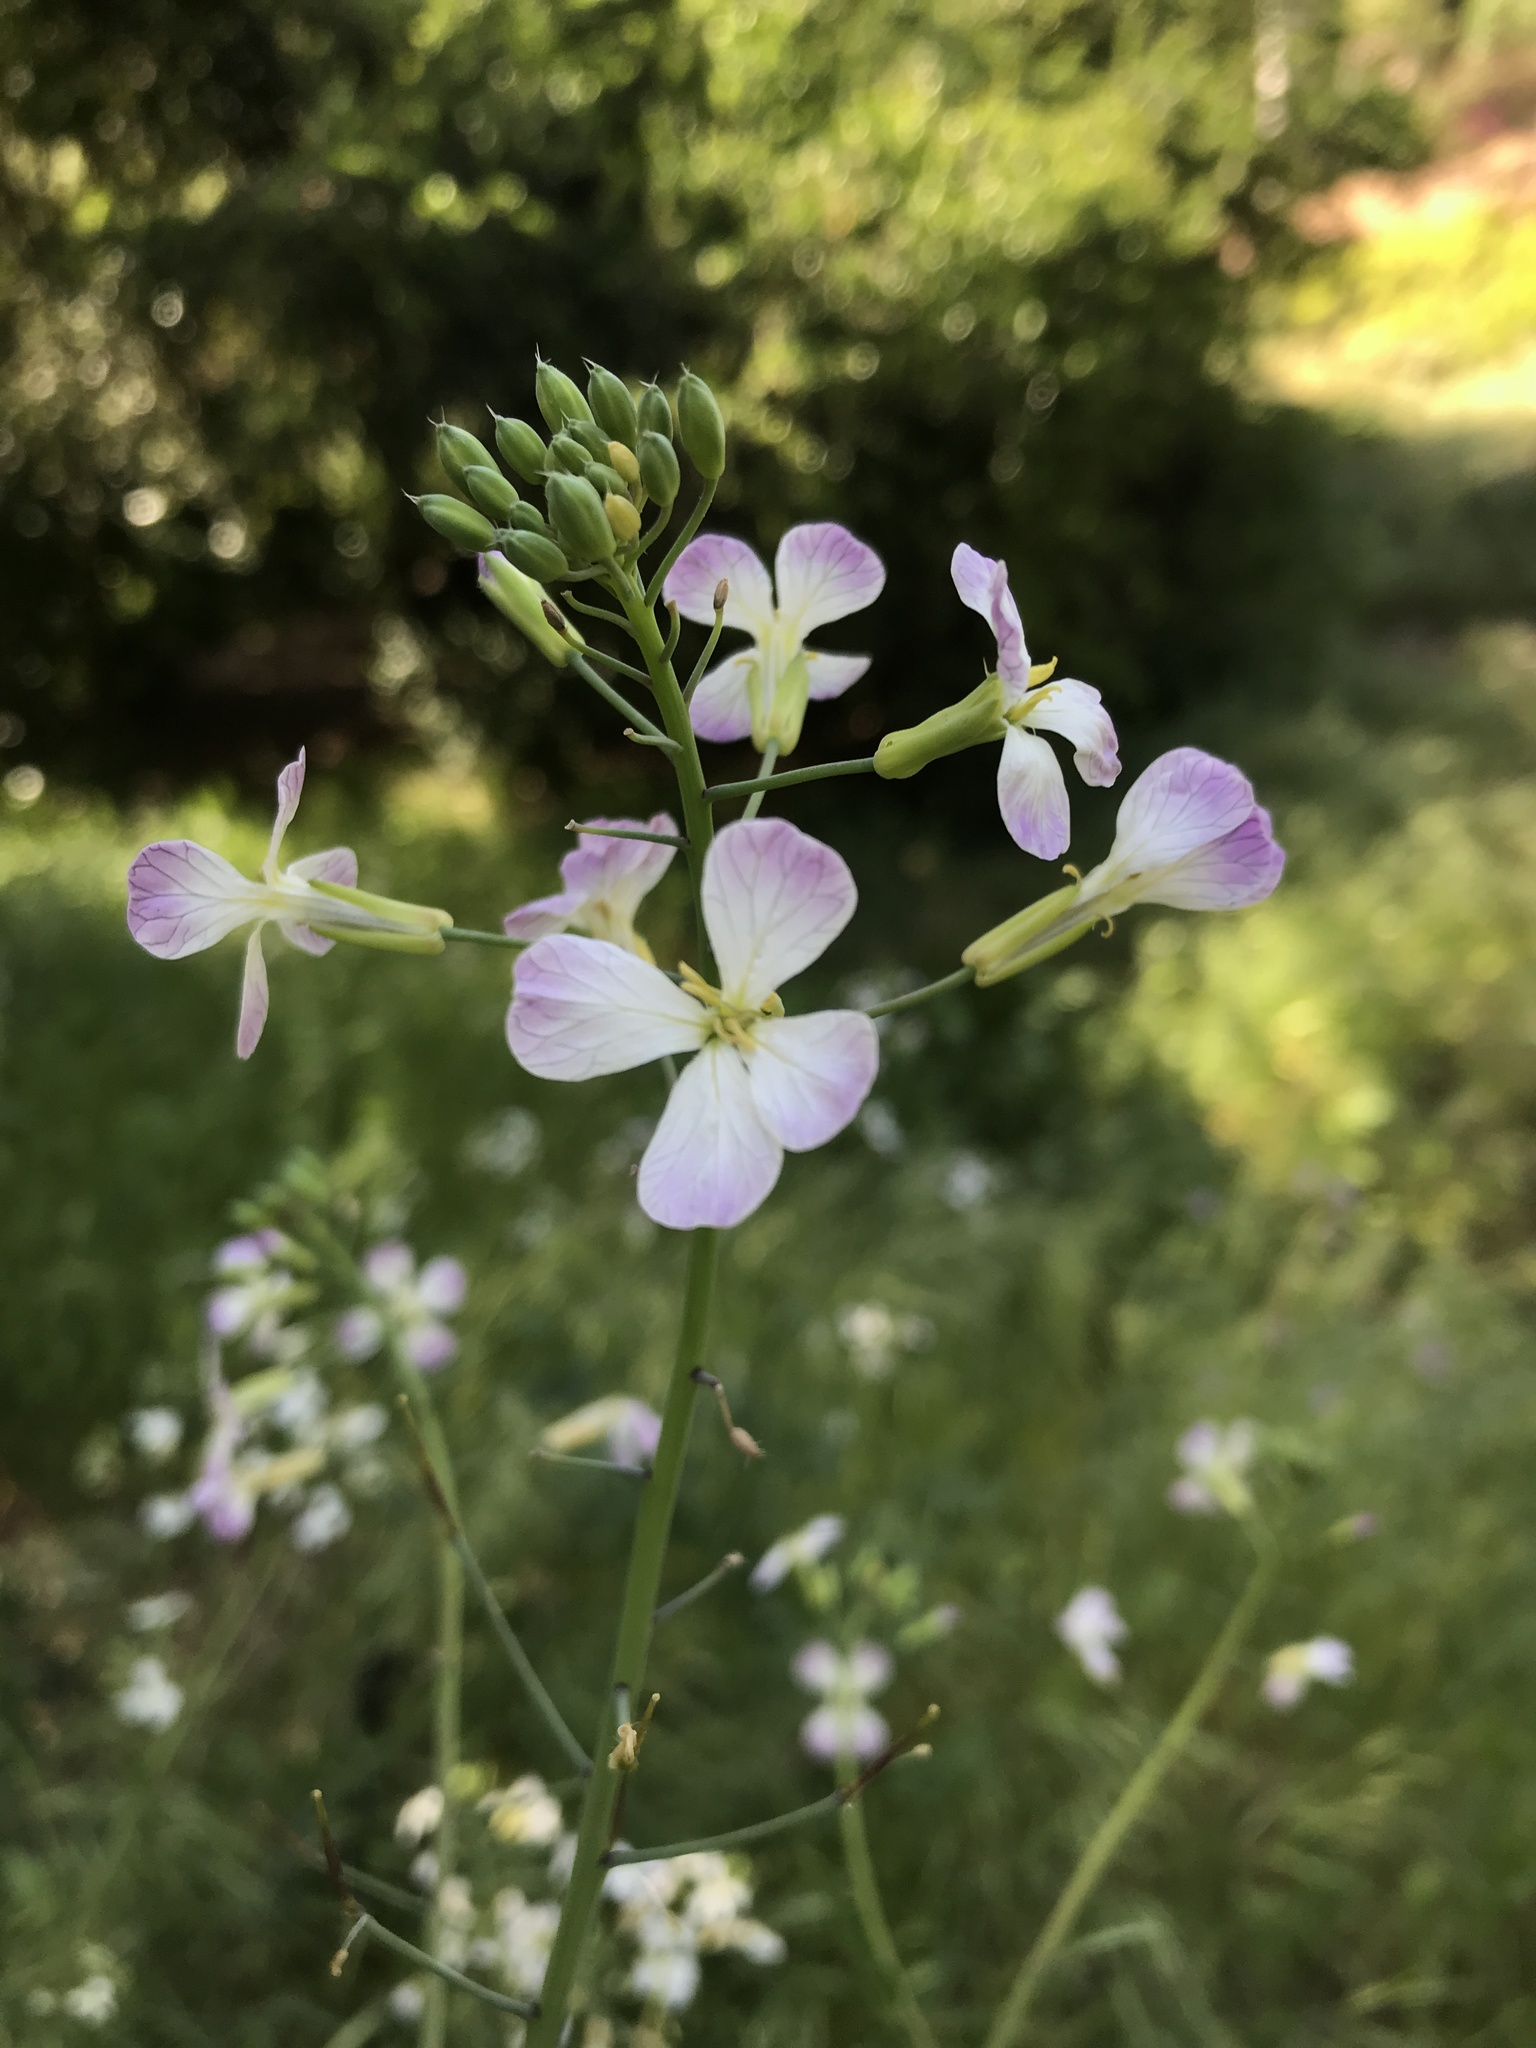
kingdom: Plantae
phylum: Tracheophyta
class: Magnoliopsida
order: Brassicales
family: Brassicaceae
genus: Raphanus
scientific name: Raphanus sativus
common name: Cultivated radish
